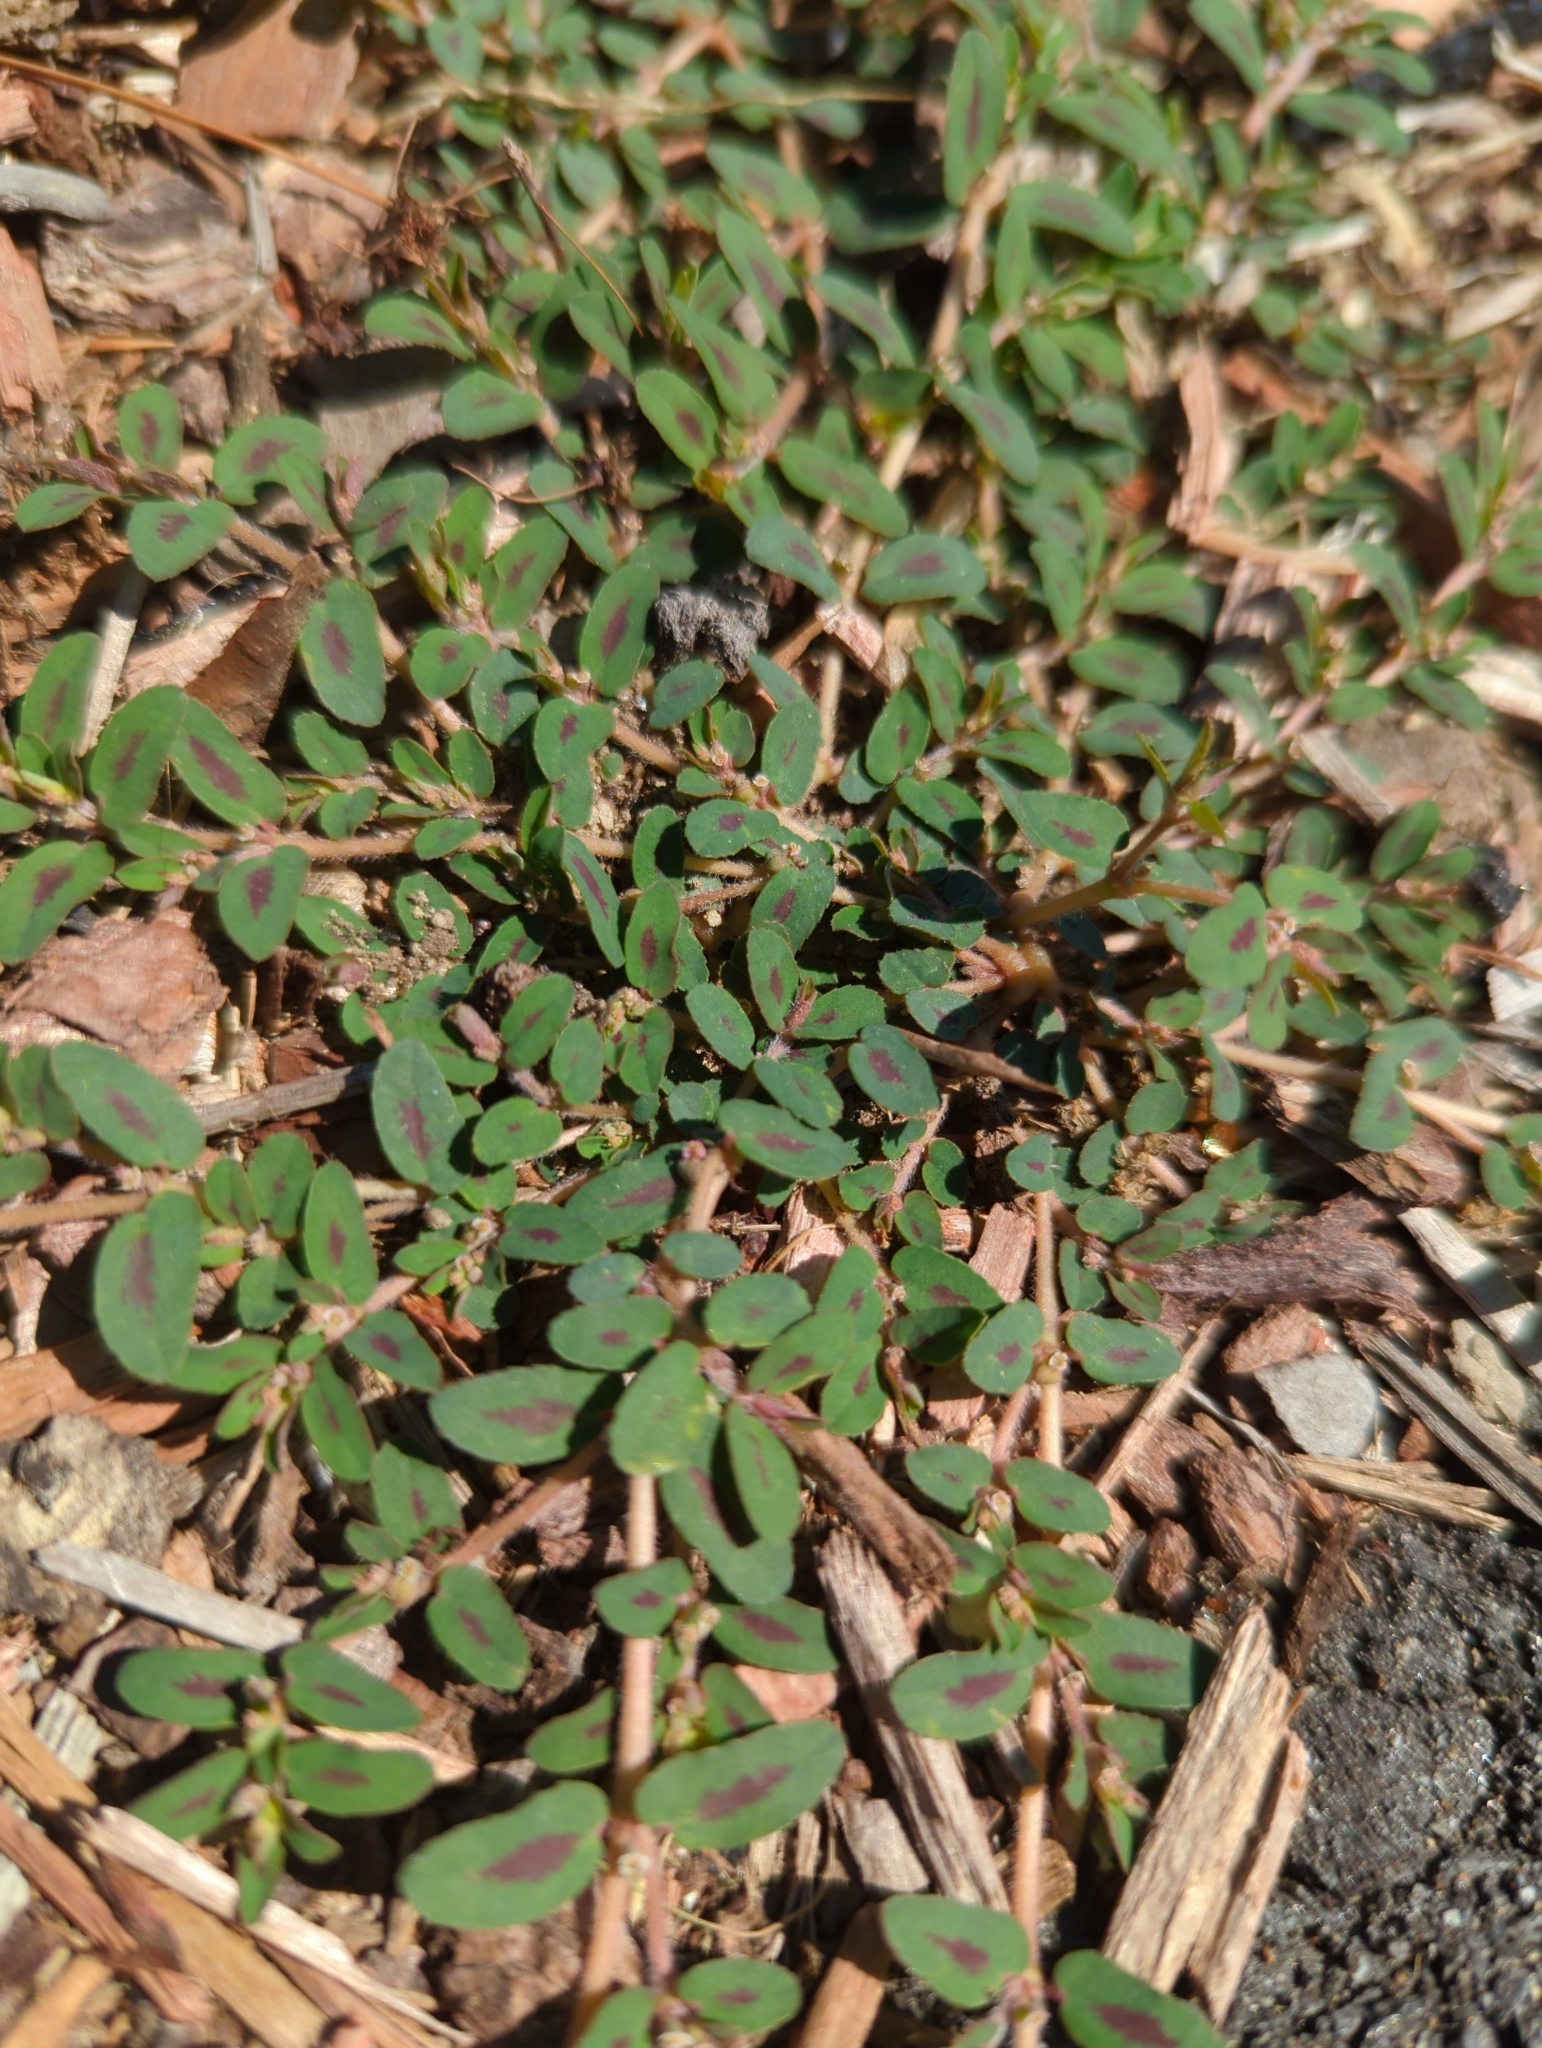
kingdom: Plantae
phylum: Tracheophyta
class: Magnoliopsida
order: Malpighiales
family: Euphorbiaceae
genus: Euphorbia
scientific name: Euphorbia maculata
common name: Spotted spurge
